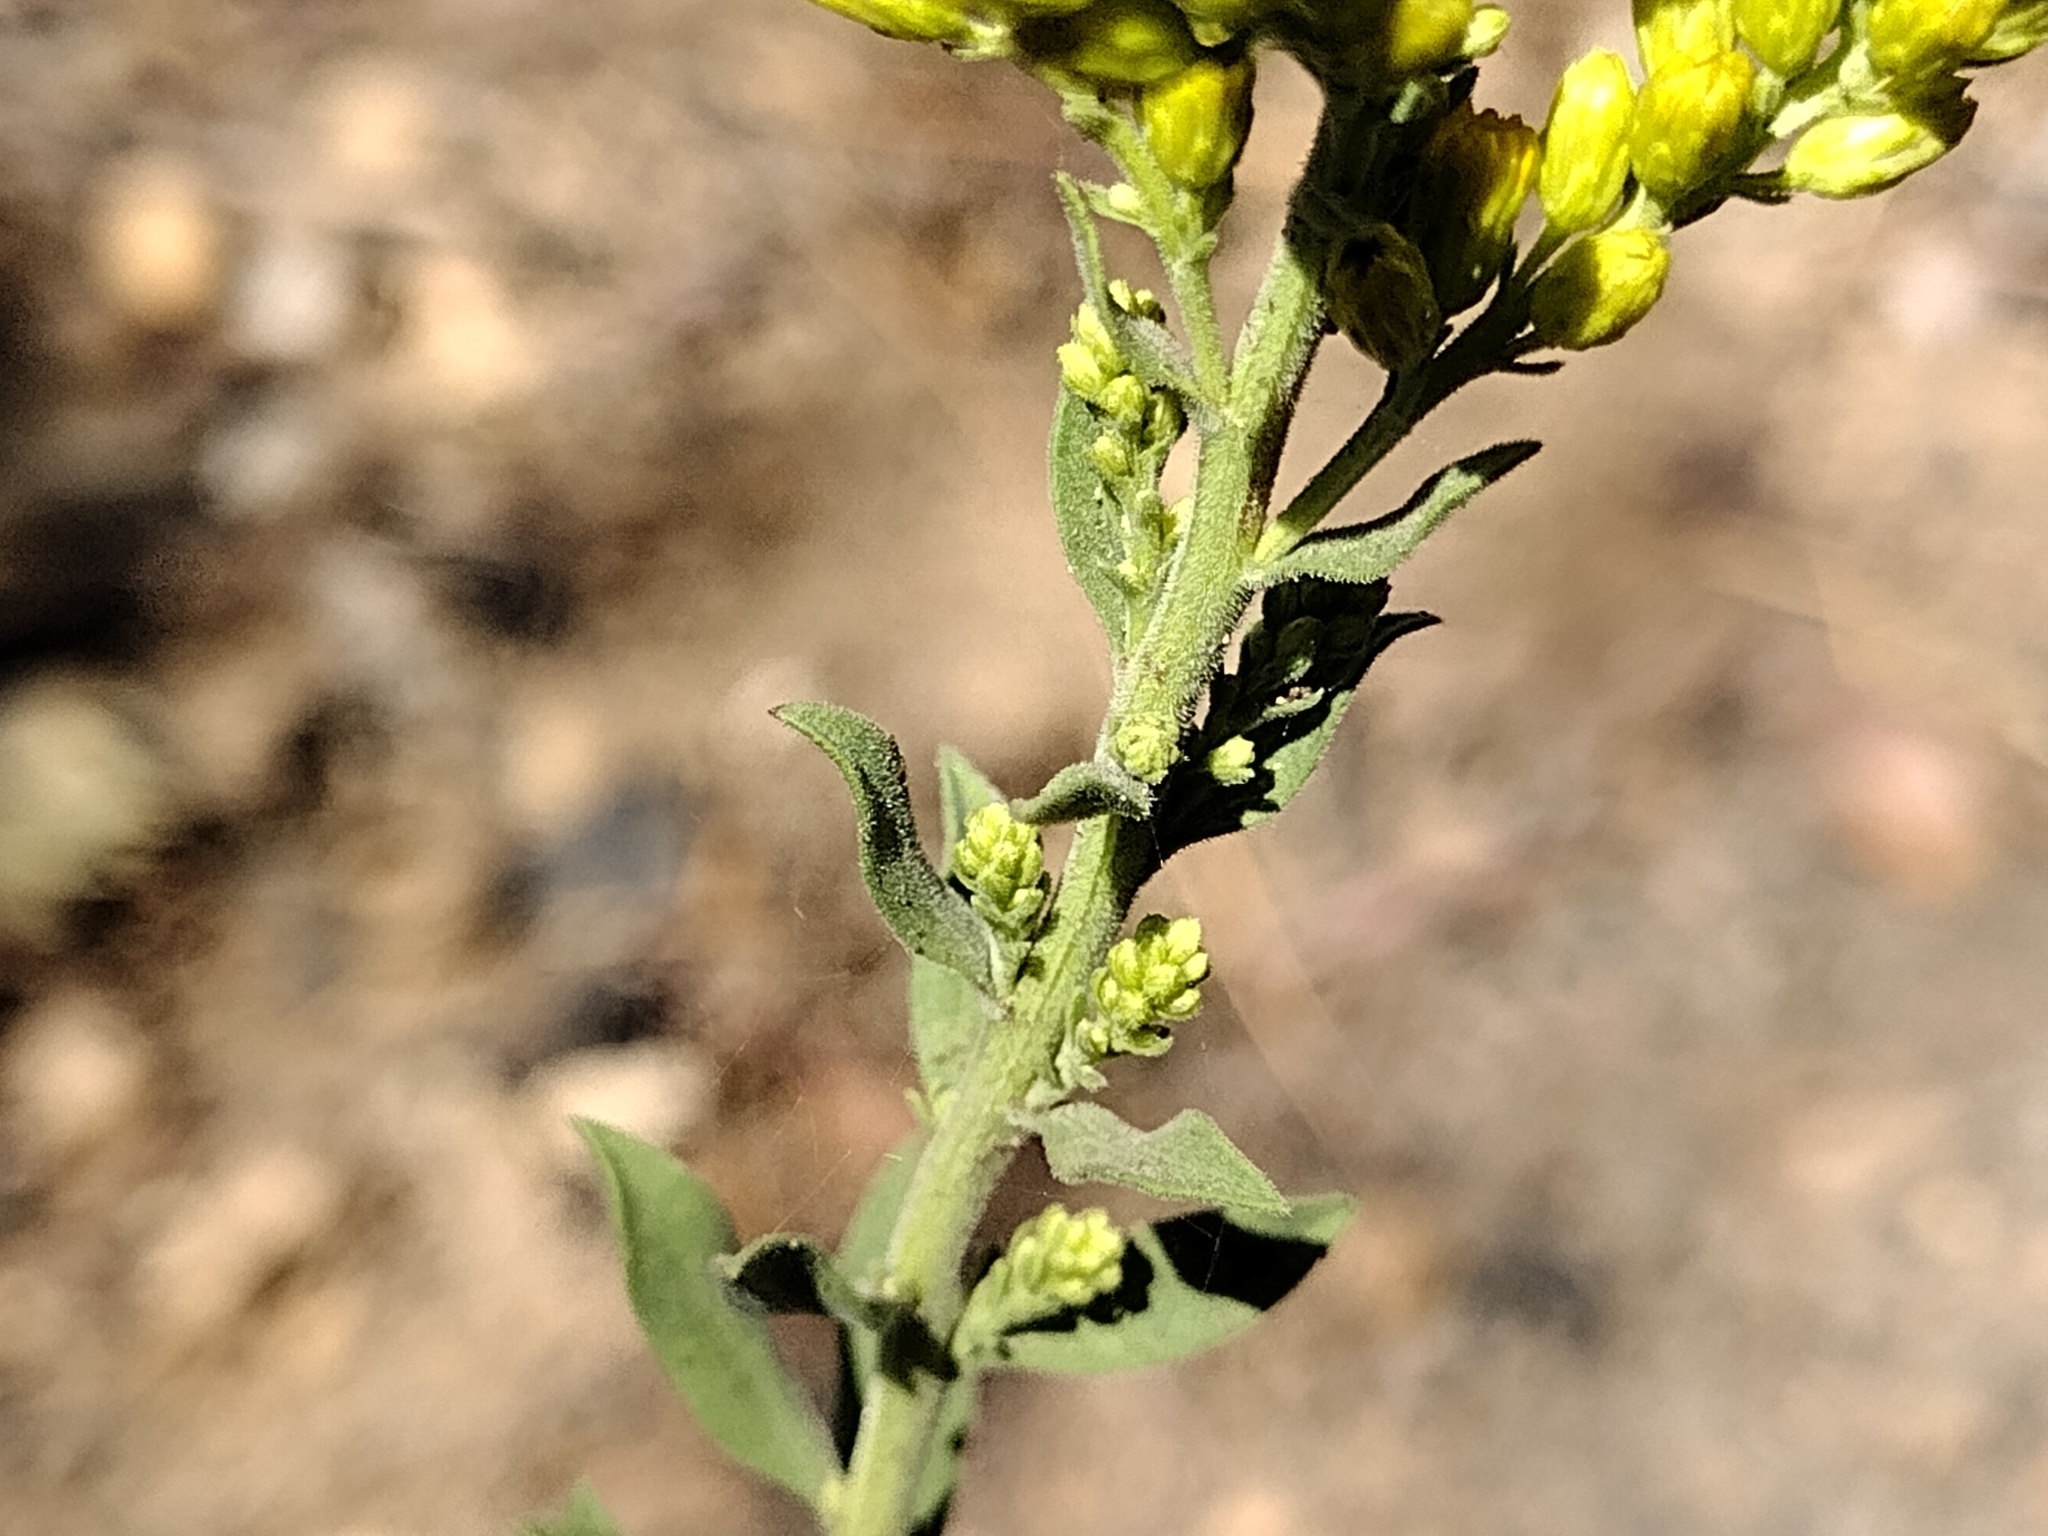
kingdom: Plantae
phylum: Tracheophyta
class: Magnoliopsida
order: Asterales
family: Asteraceae
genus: Solidago
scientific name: Solidago velutina
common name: Three-nerve goldenrod
